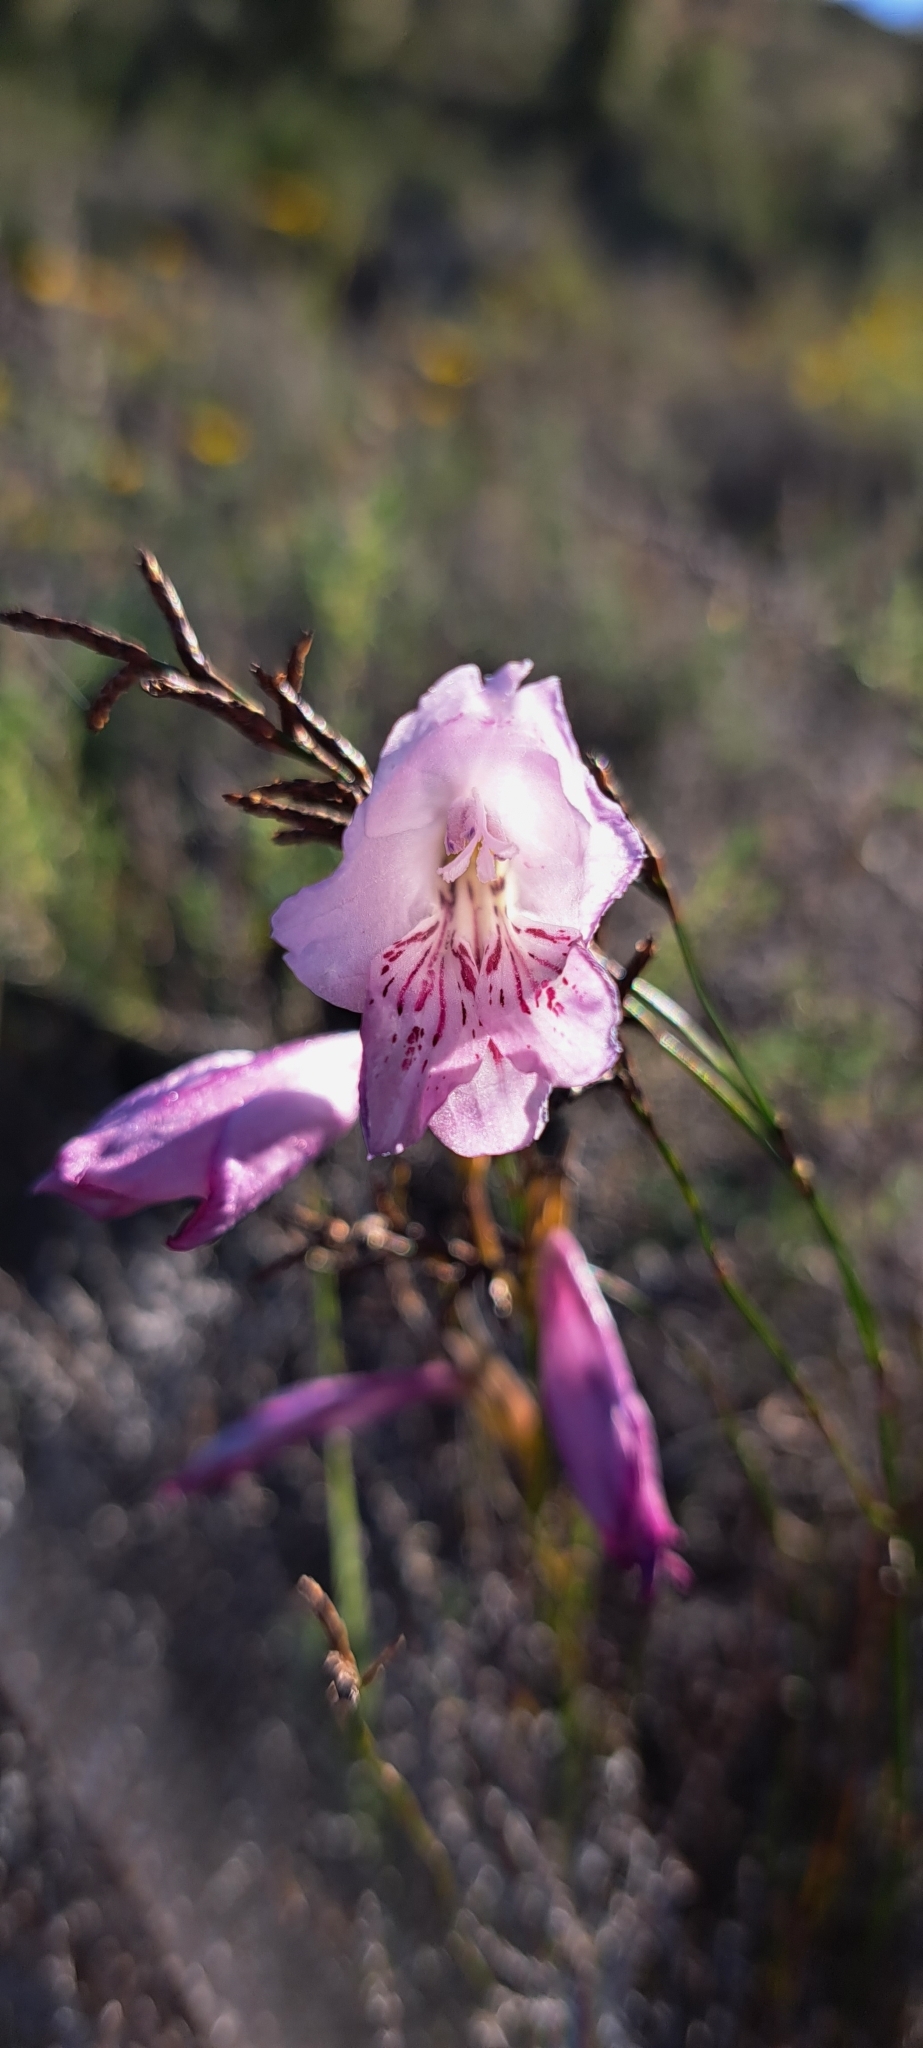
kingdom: Plantae
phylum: Tracheophyta
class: Liliopsida
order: Asparagales
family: Iridaceae
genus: Gladiolus
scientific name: Gladiolus hirsutus
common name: Small pink afrikaner
